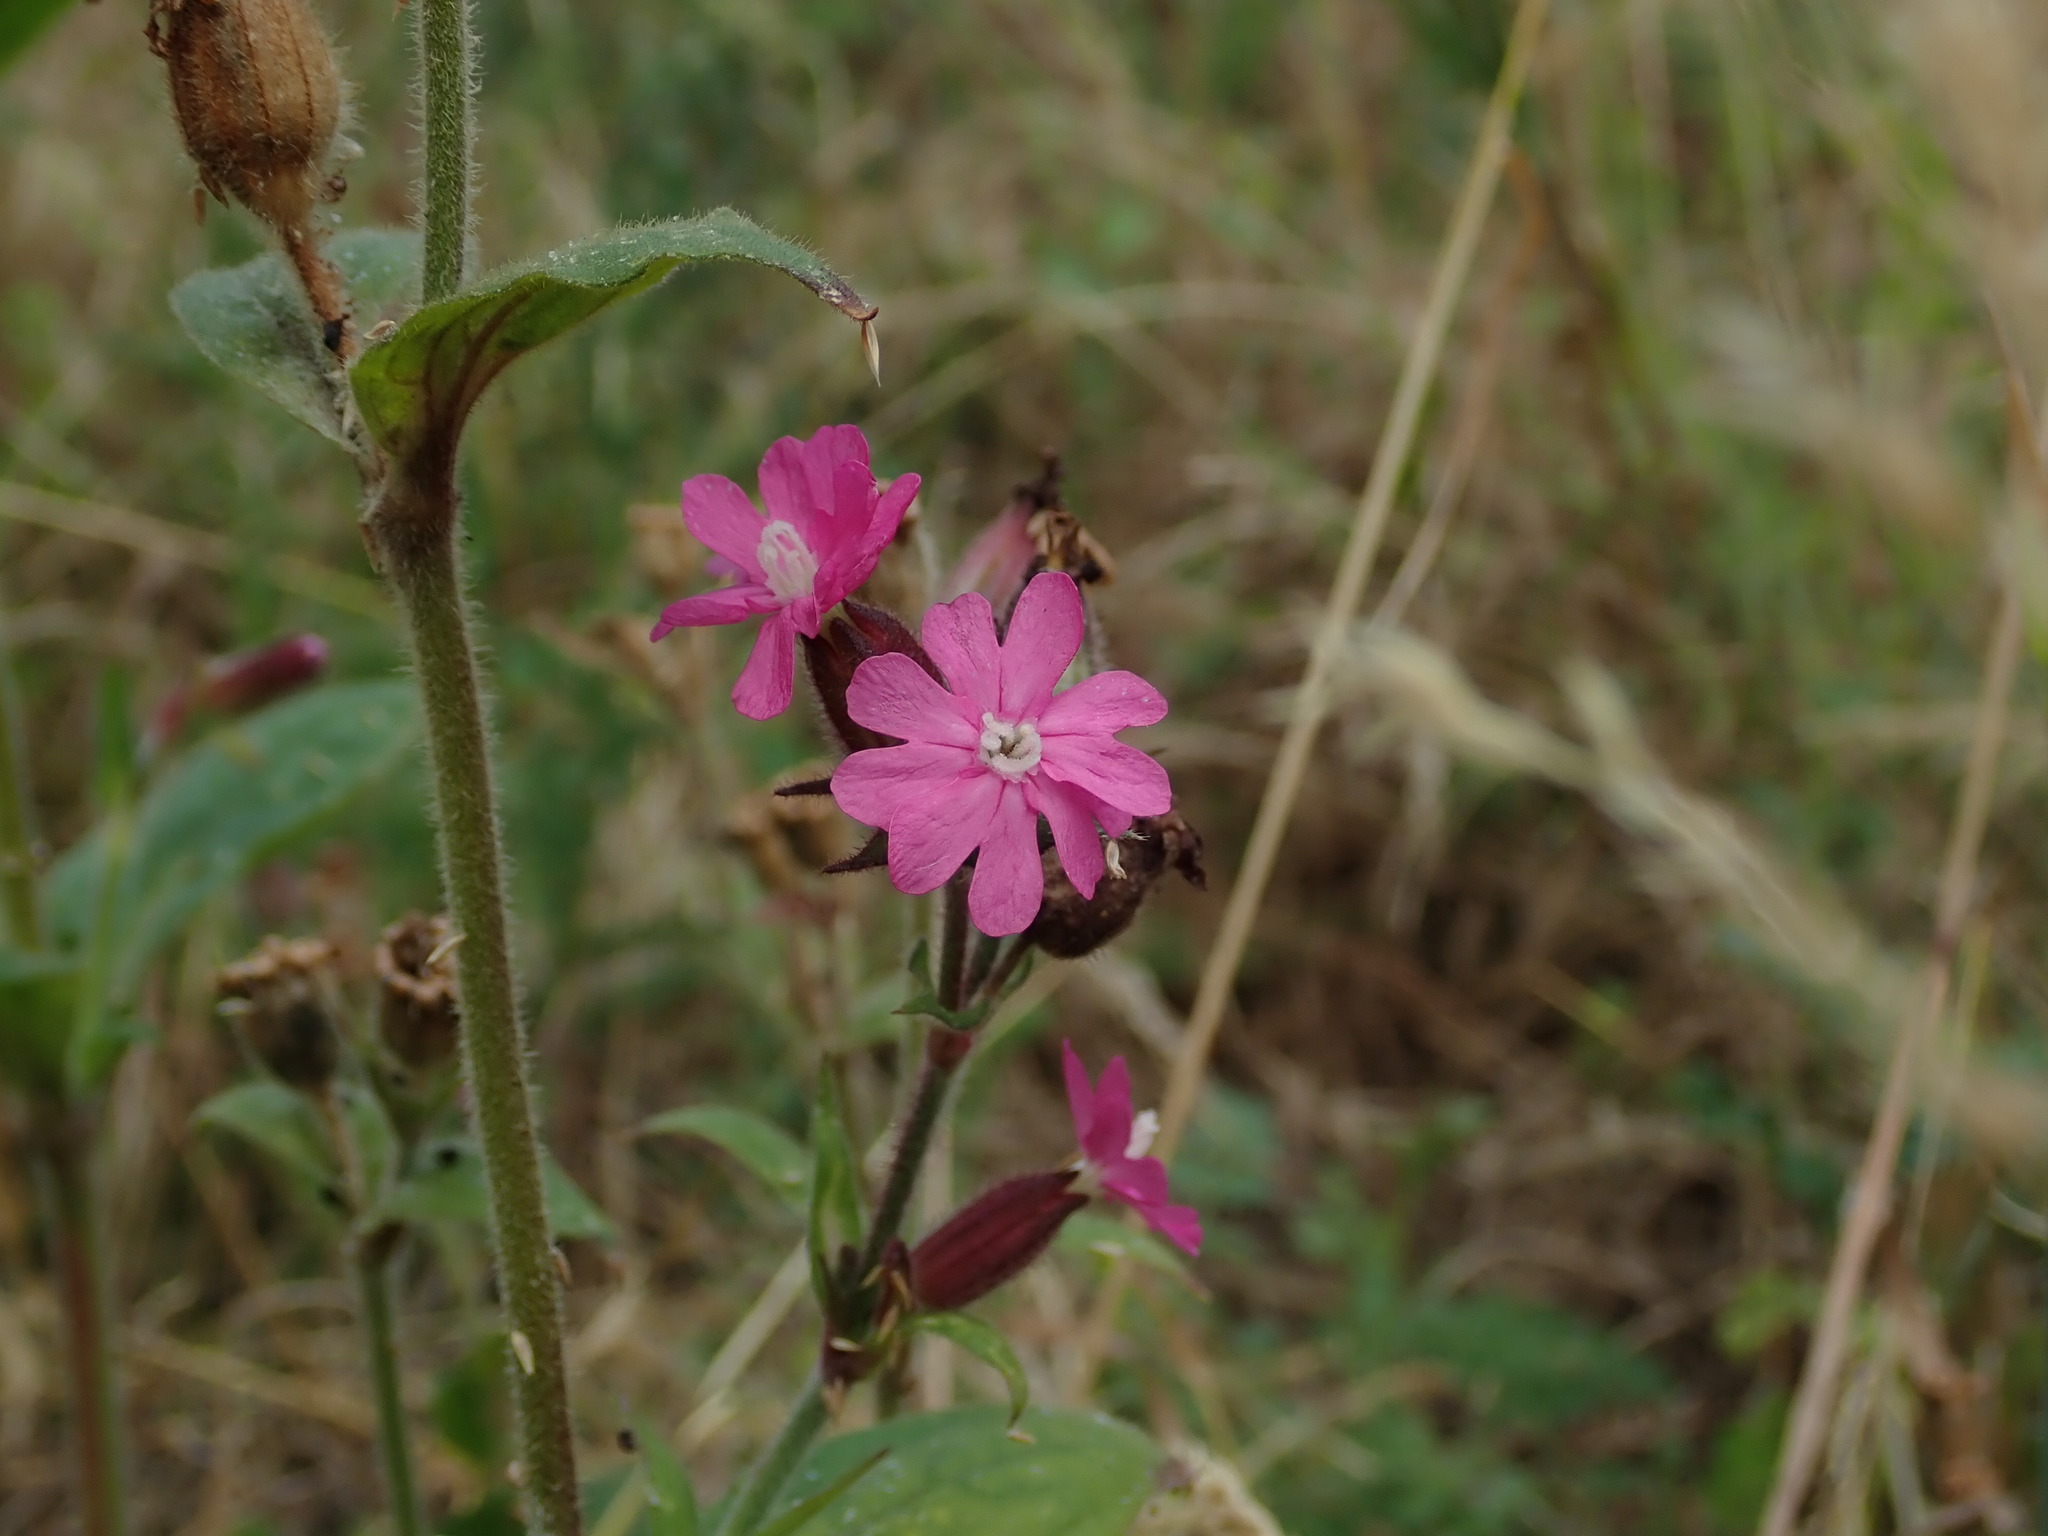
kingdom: Plantae
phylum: Tracheophyta
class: Magnoliopsida
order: Caryophyllales
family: Caryophyllaceae
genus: Silene
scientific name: Silene dioica
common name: Red campion
